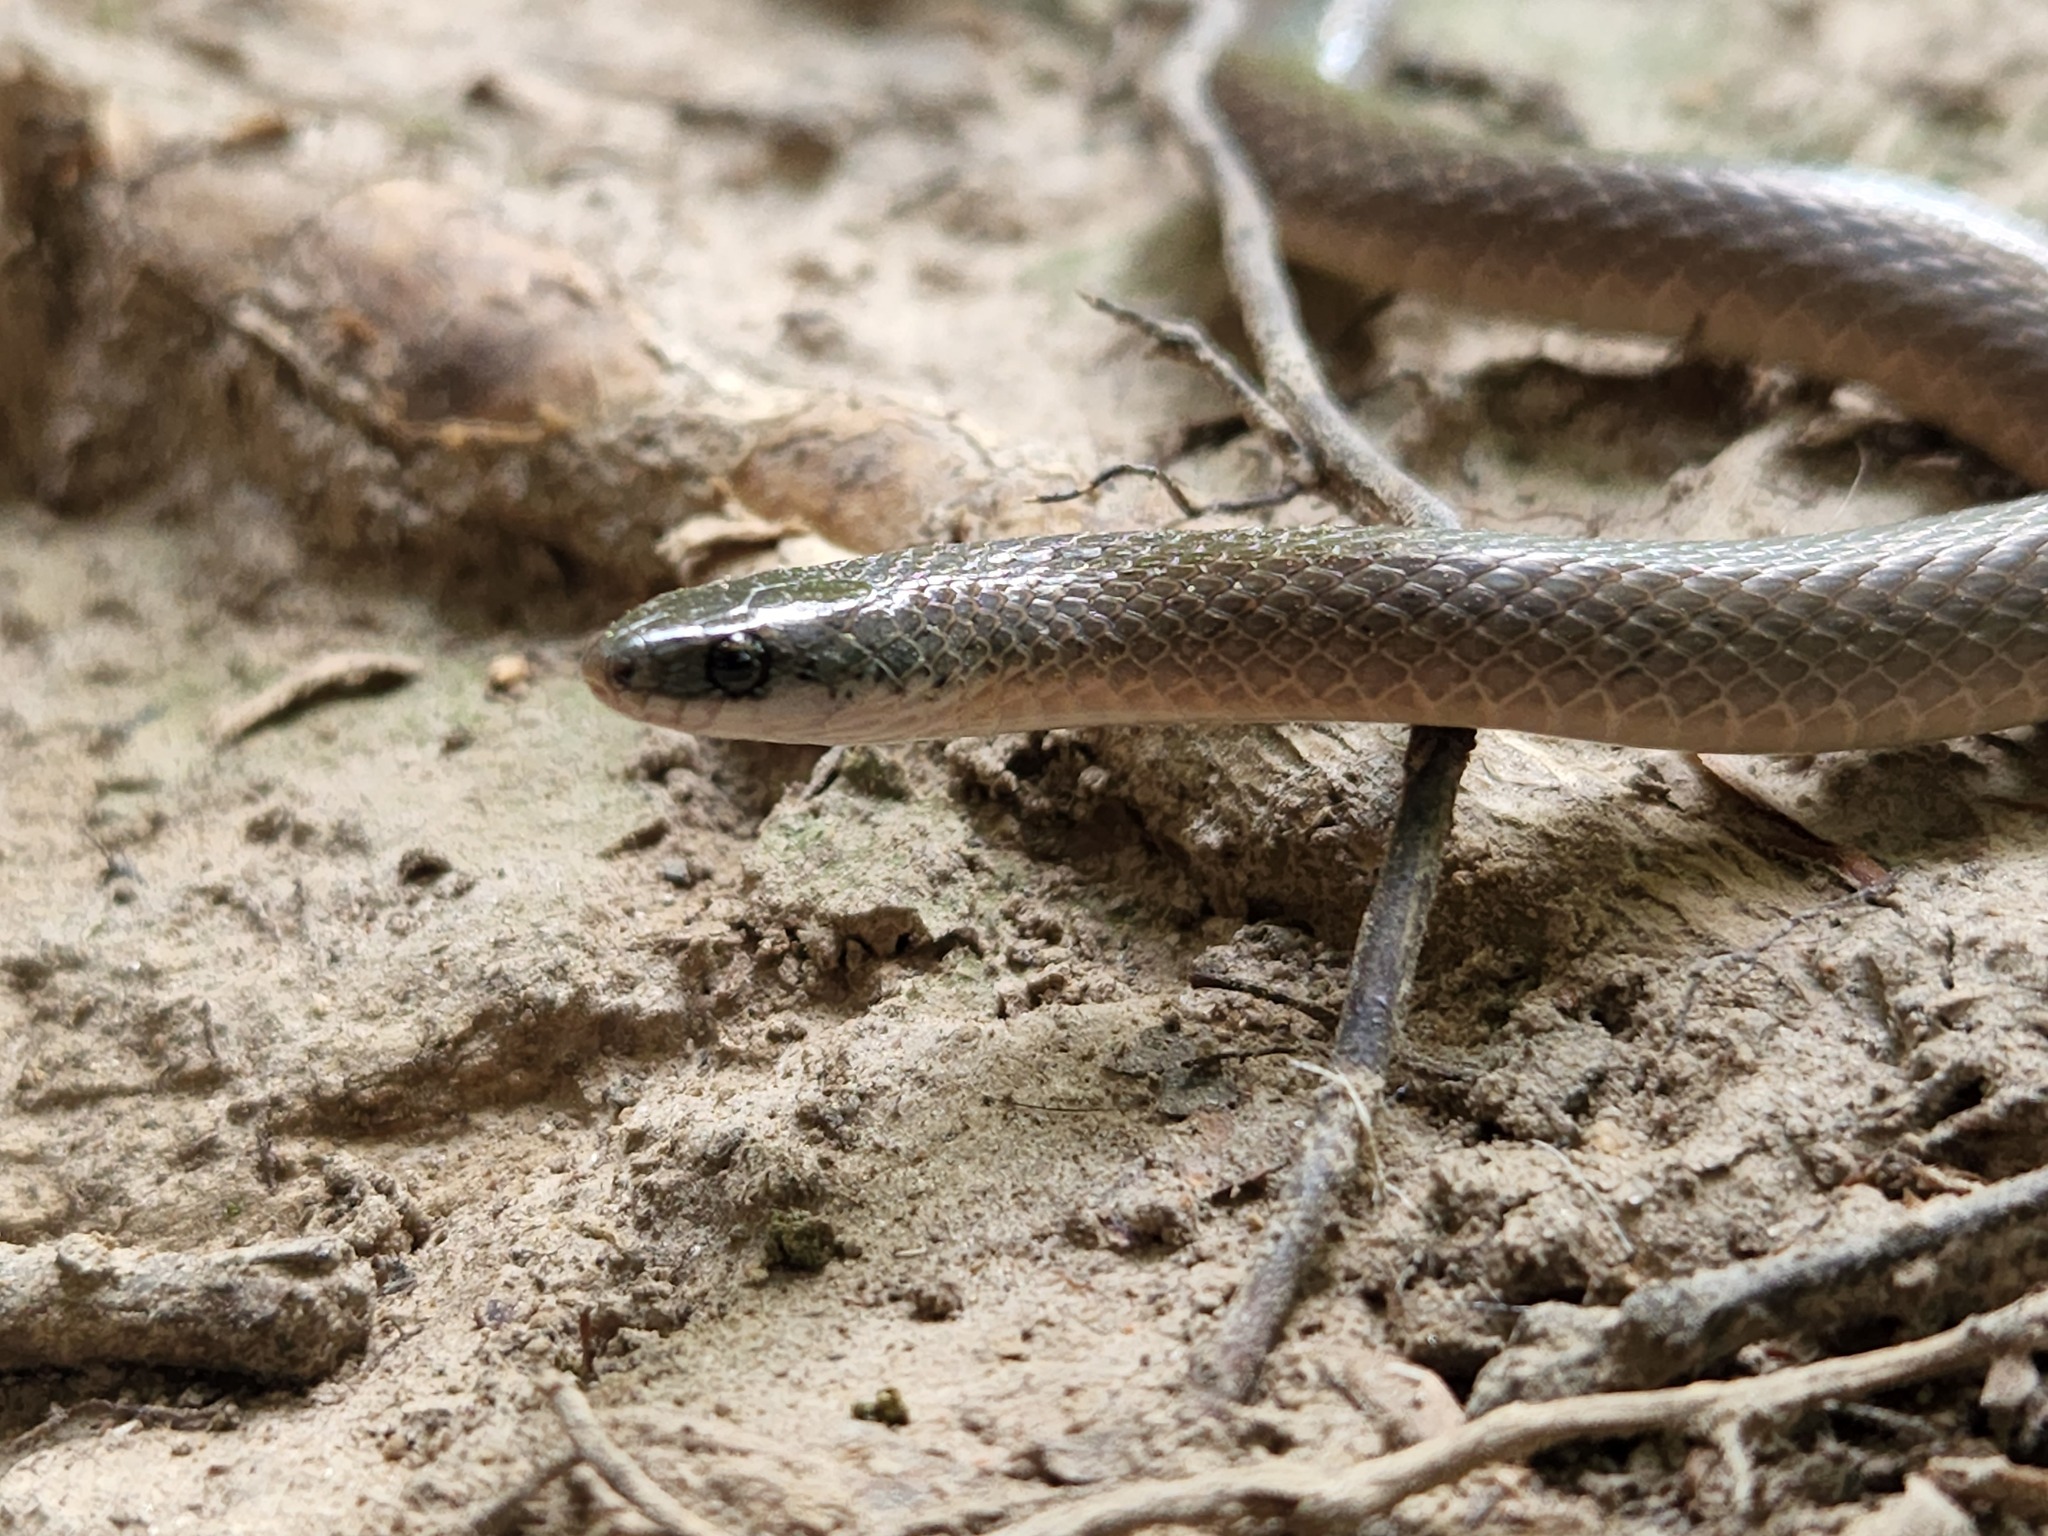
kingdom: Animalia
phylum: Chordata
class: Squamata
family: Colubridae
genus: Virginia
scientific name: Virginia valeriae
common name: Smooth earth snake
